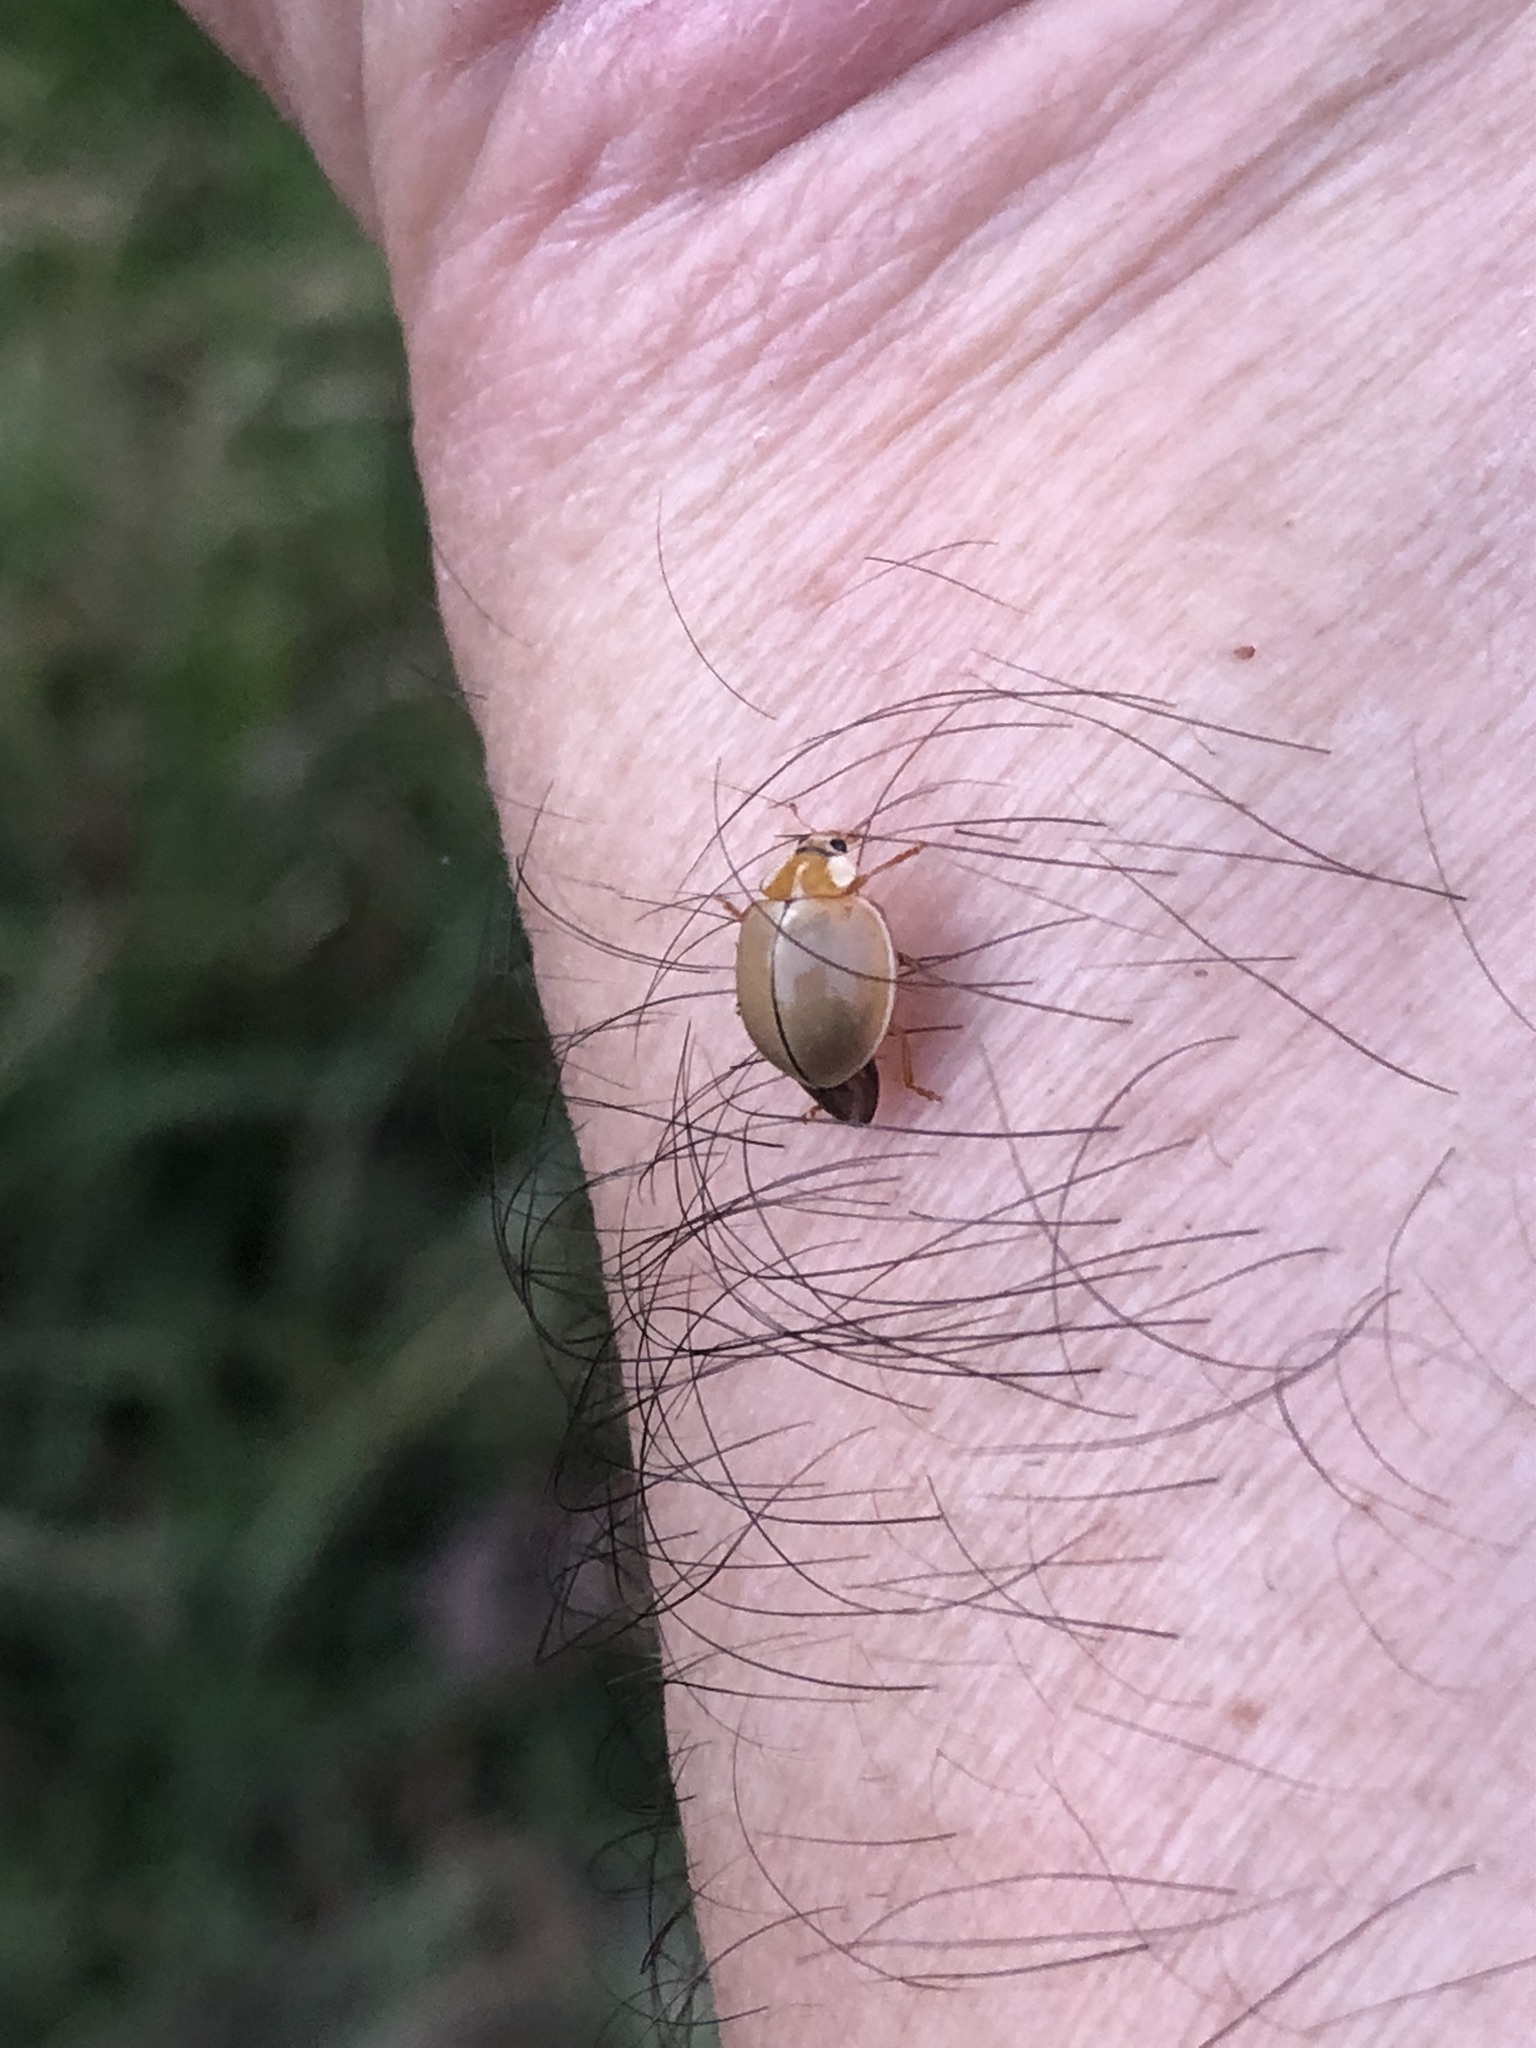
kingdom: Animalia
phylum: Arthropoda
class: Insecta
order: Coleoptera
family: Coccinellidae
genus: Paraneda
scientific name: Paraneda pallidula
